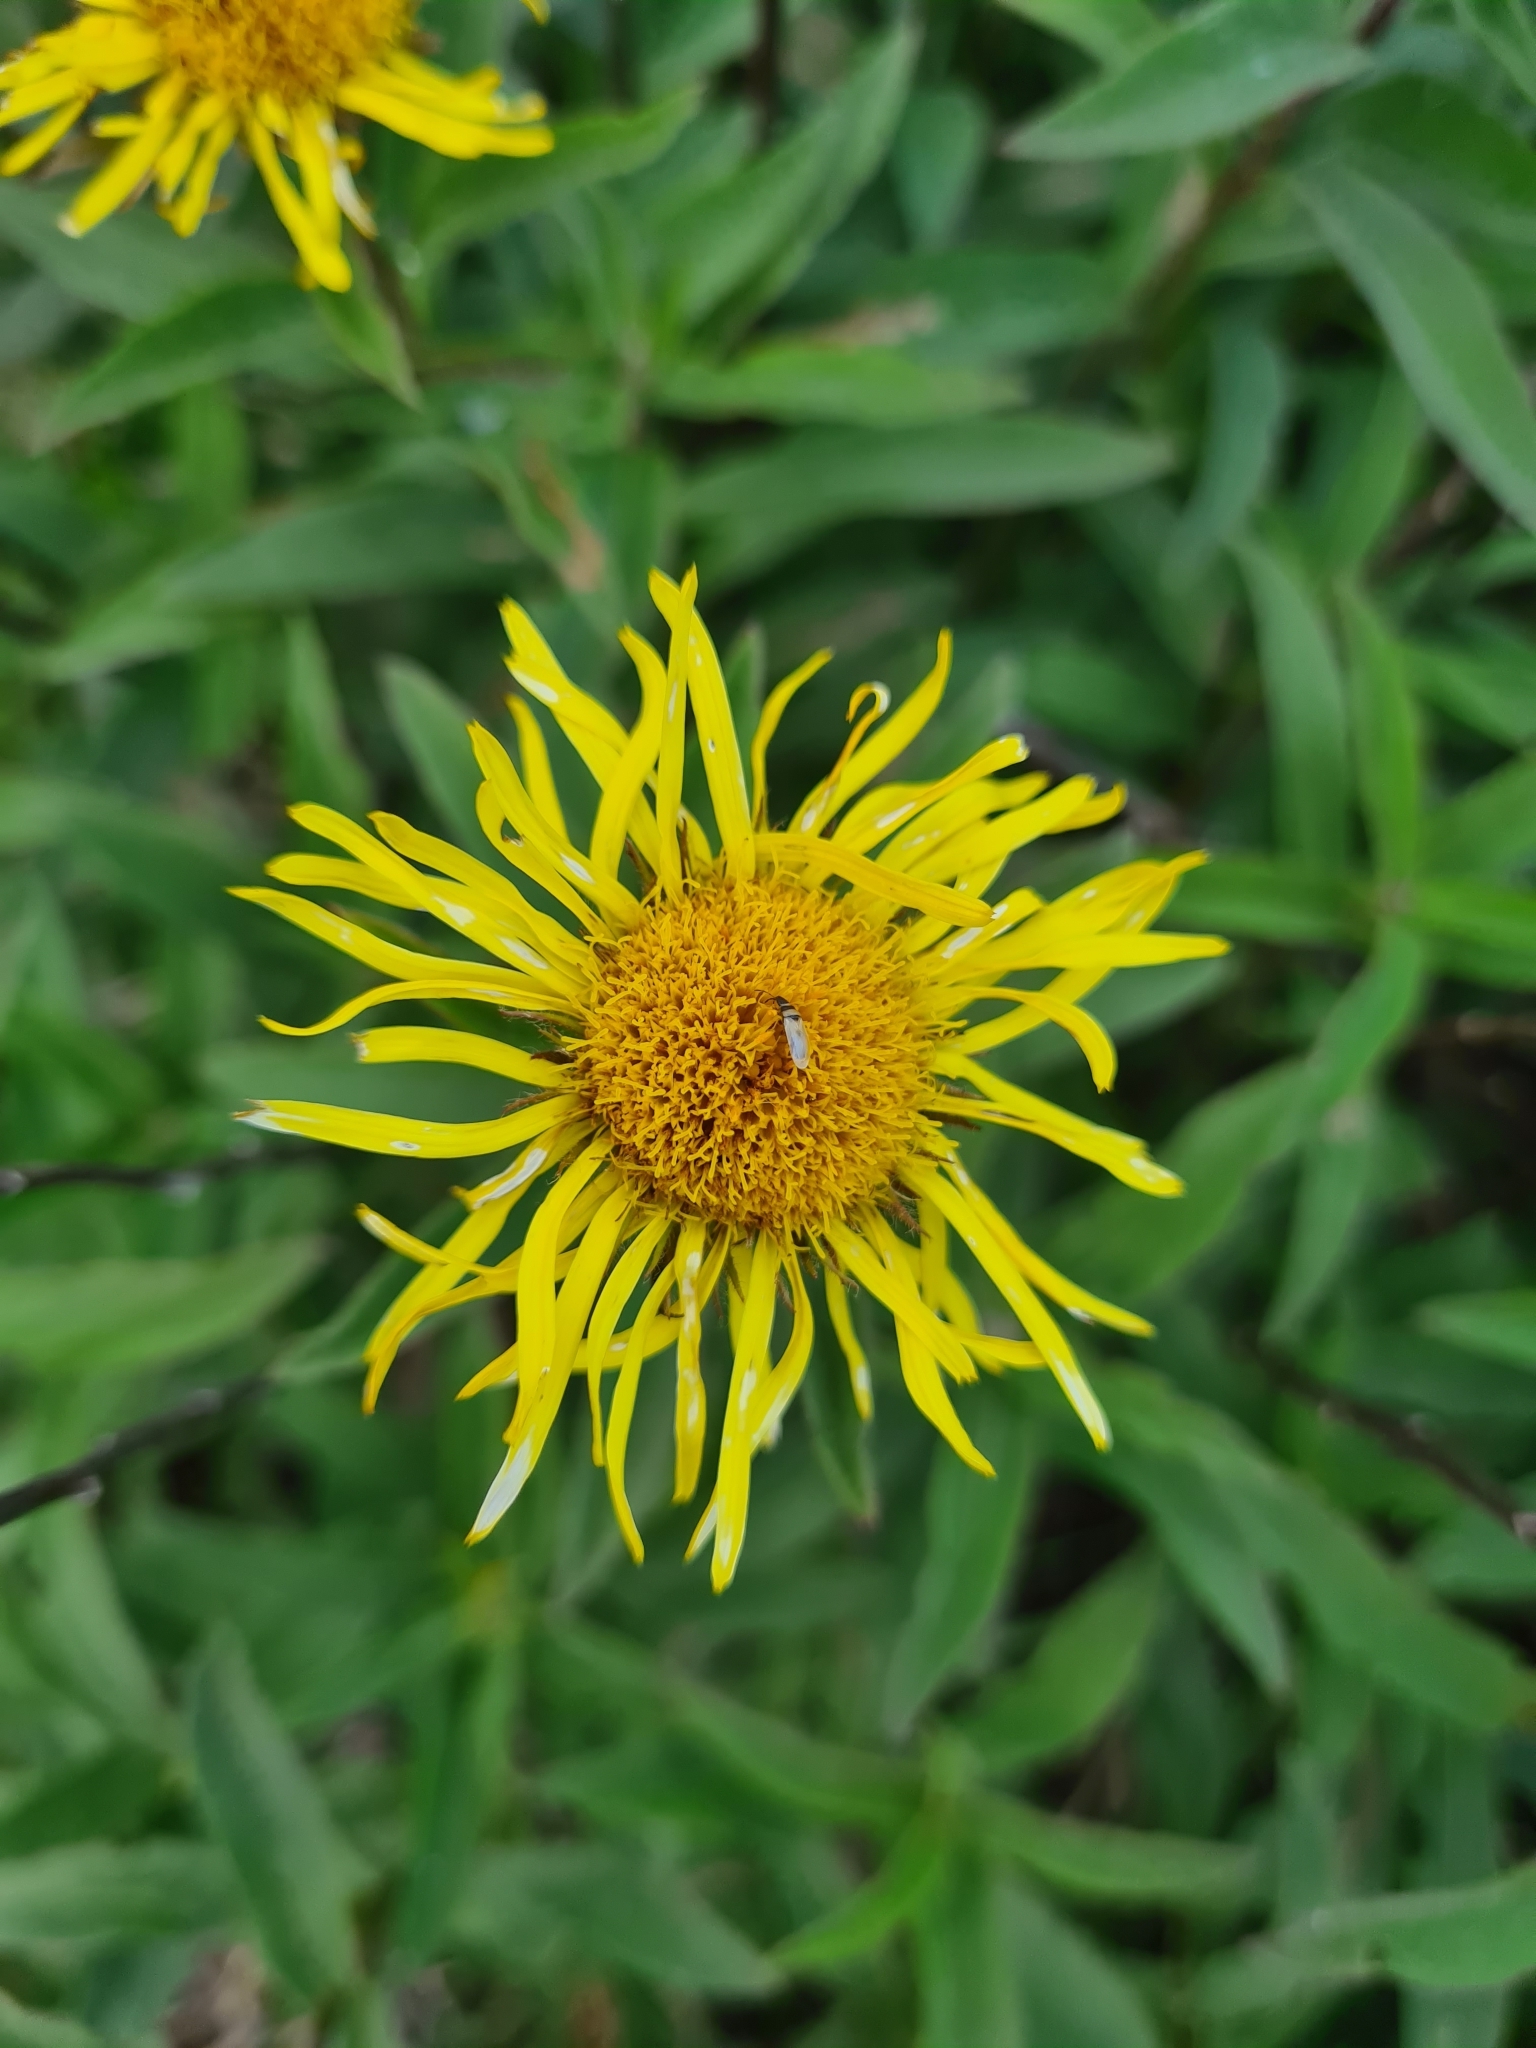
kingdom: Plantae
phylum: Tracheophyta
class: Magnoliopsida
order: Asterales
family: Asteraceae
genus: Pentanema
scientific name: Pentanema hirtum
